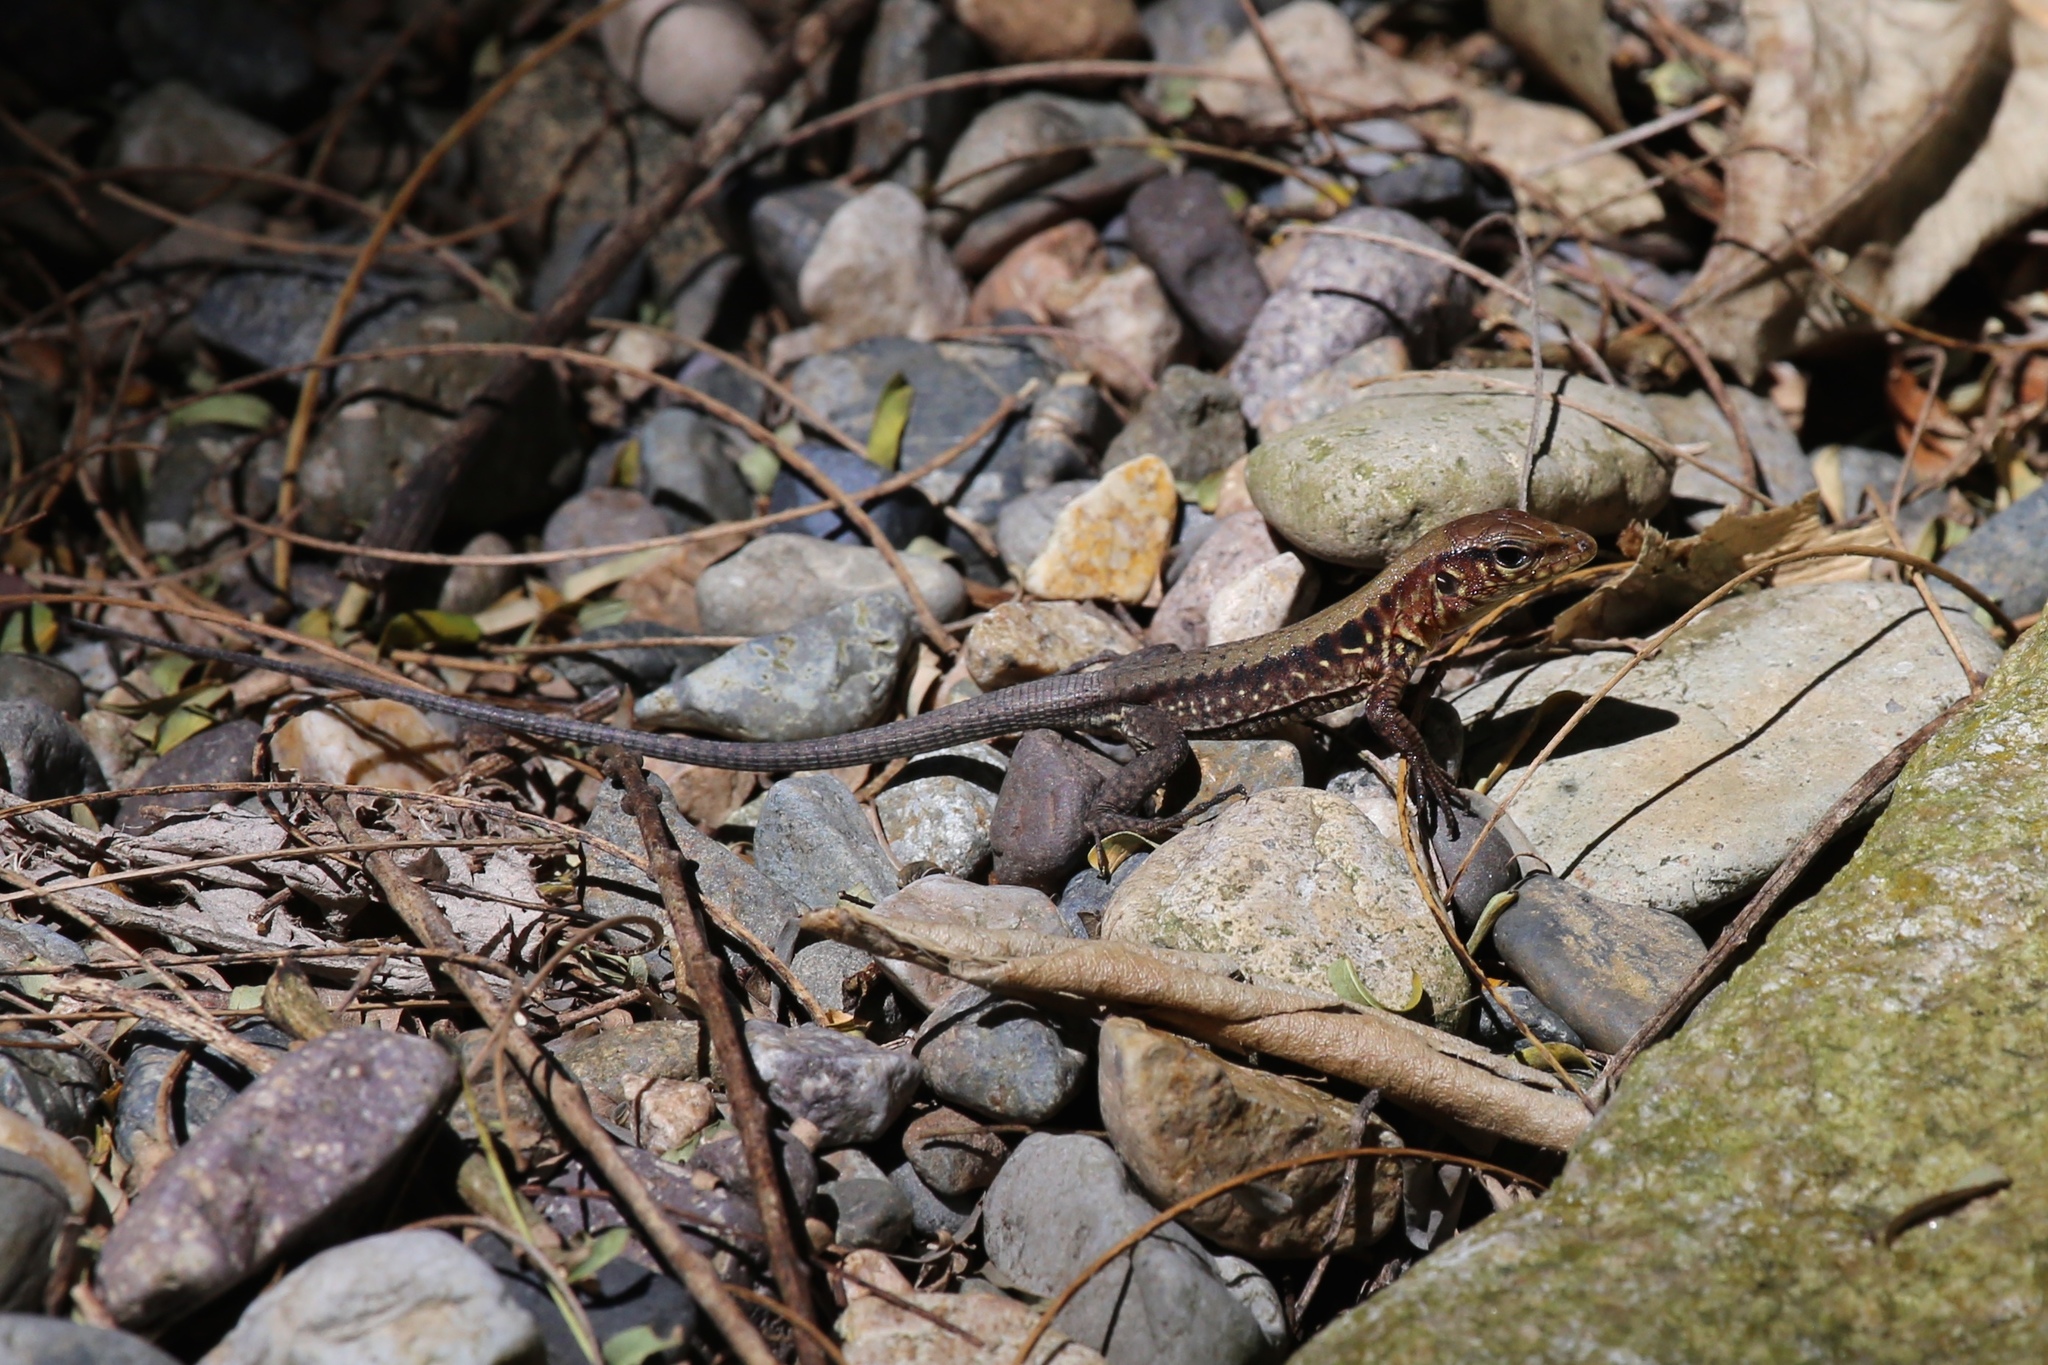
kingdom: Animalia
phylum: Chordata
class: Squamata
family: Teiidae
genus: Holcosus
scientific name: Holcosus sinister
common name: Rainbow ameiva
